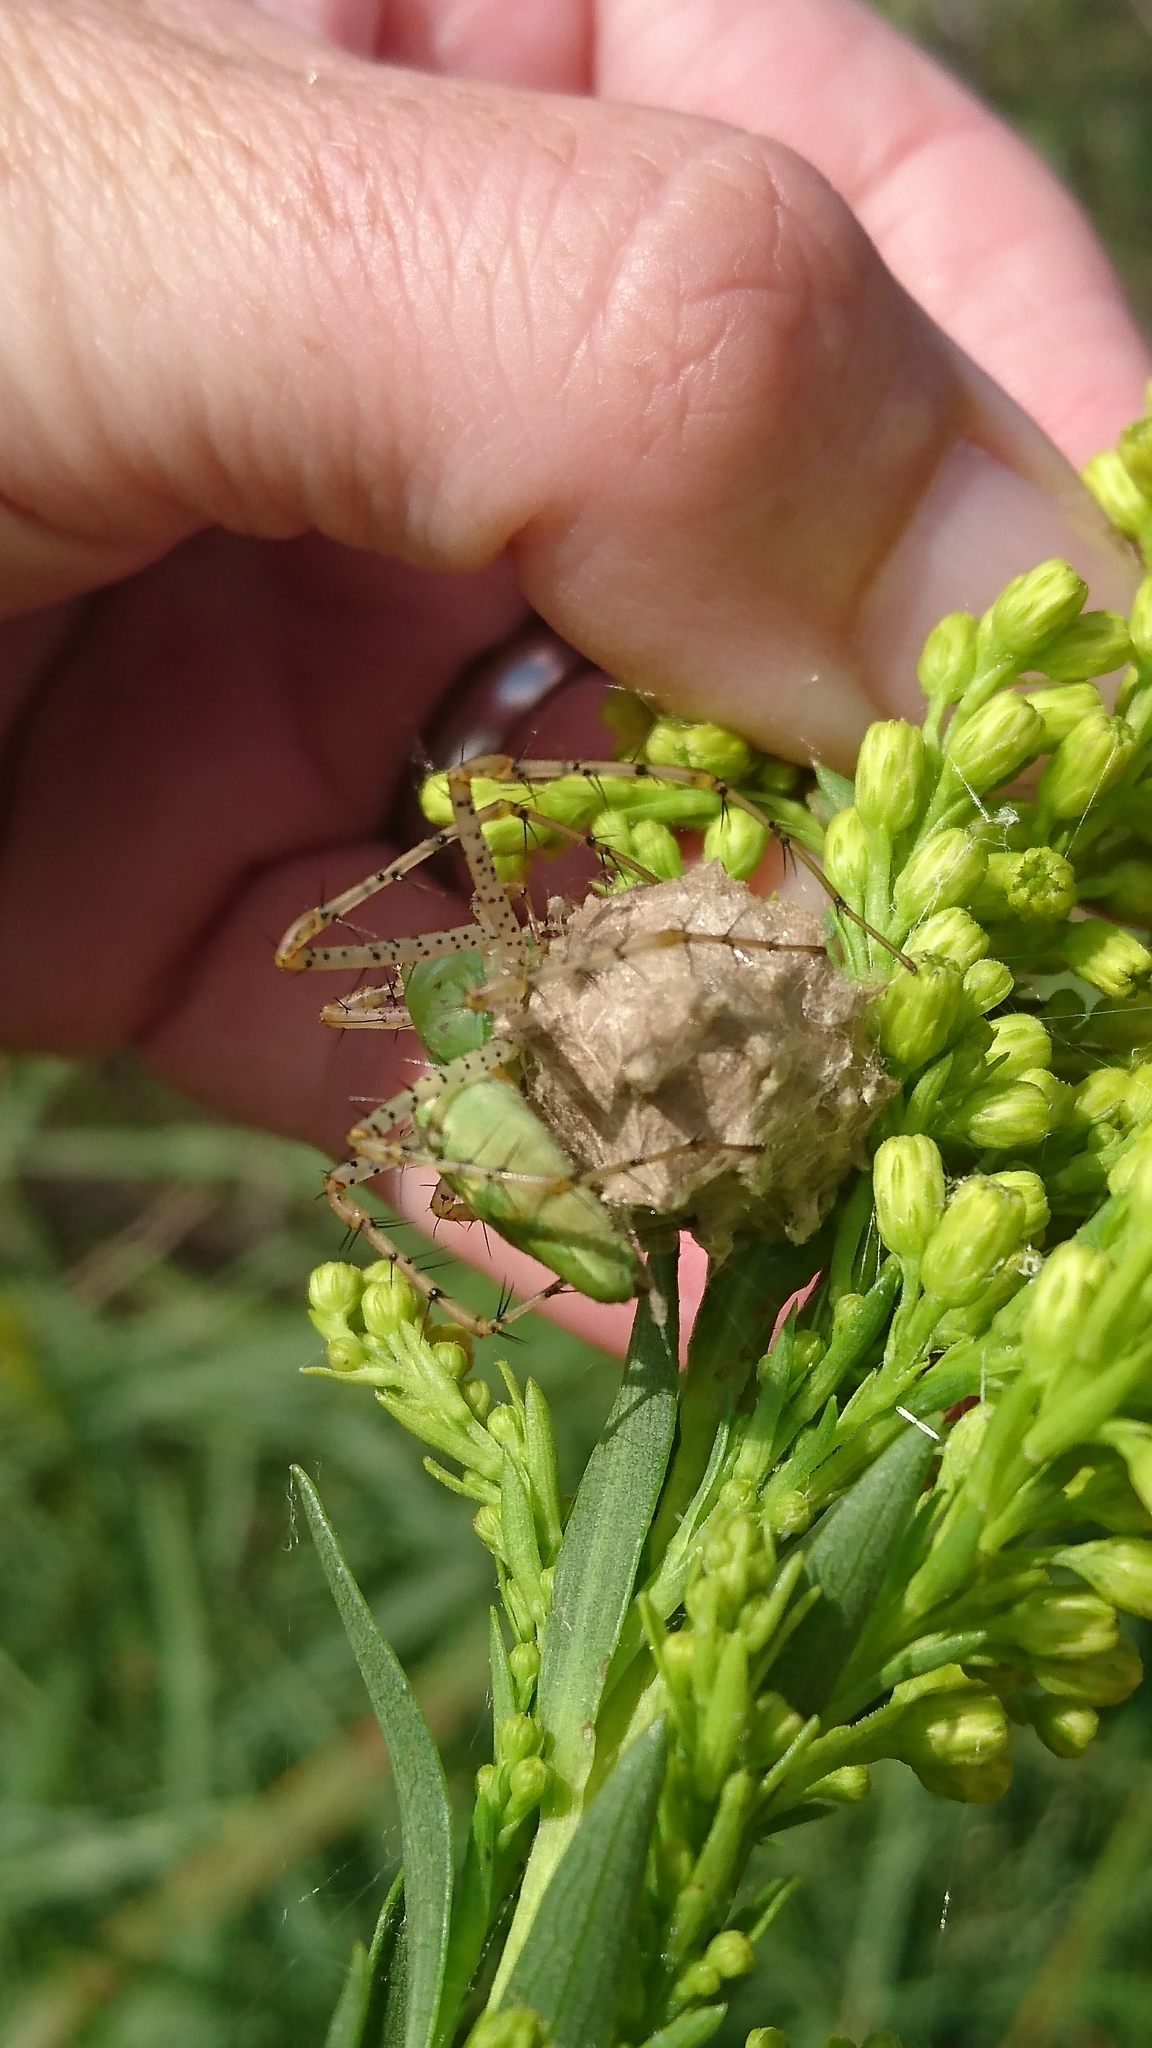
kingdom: Animalia
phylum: Arthropoda
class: Arachnida
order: Araneae
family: Oxyopidae
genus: Peucetia
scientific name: Peucetia viridans
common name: Lynx spiders
